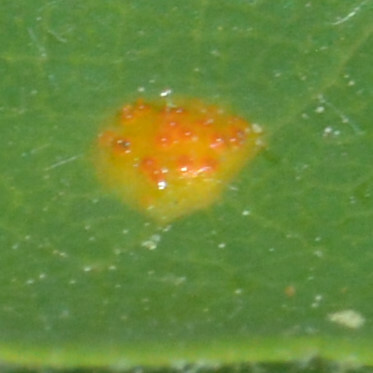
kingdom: Fungi
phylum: Basidiomycota
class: Pucciniomycetes
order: Pucciniales
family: Gymnosporangiaceae
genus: Gymnosporangium
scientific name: Gymnosporangium cornutum
